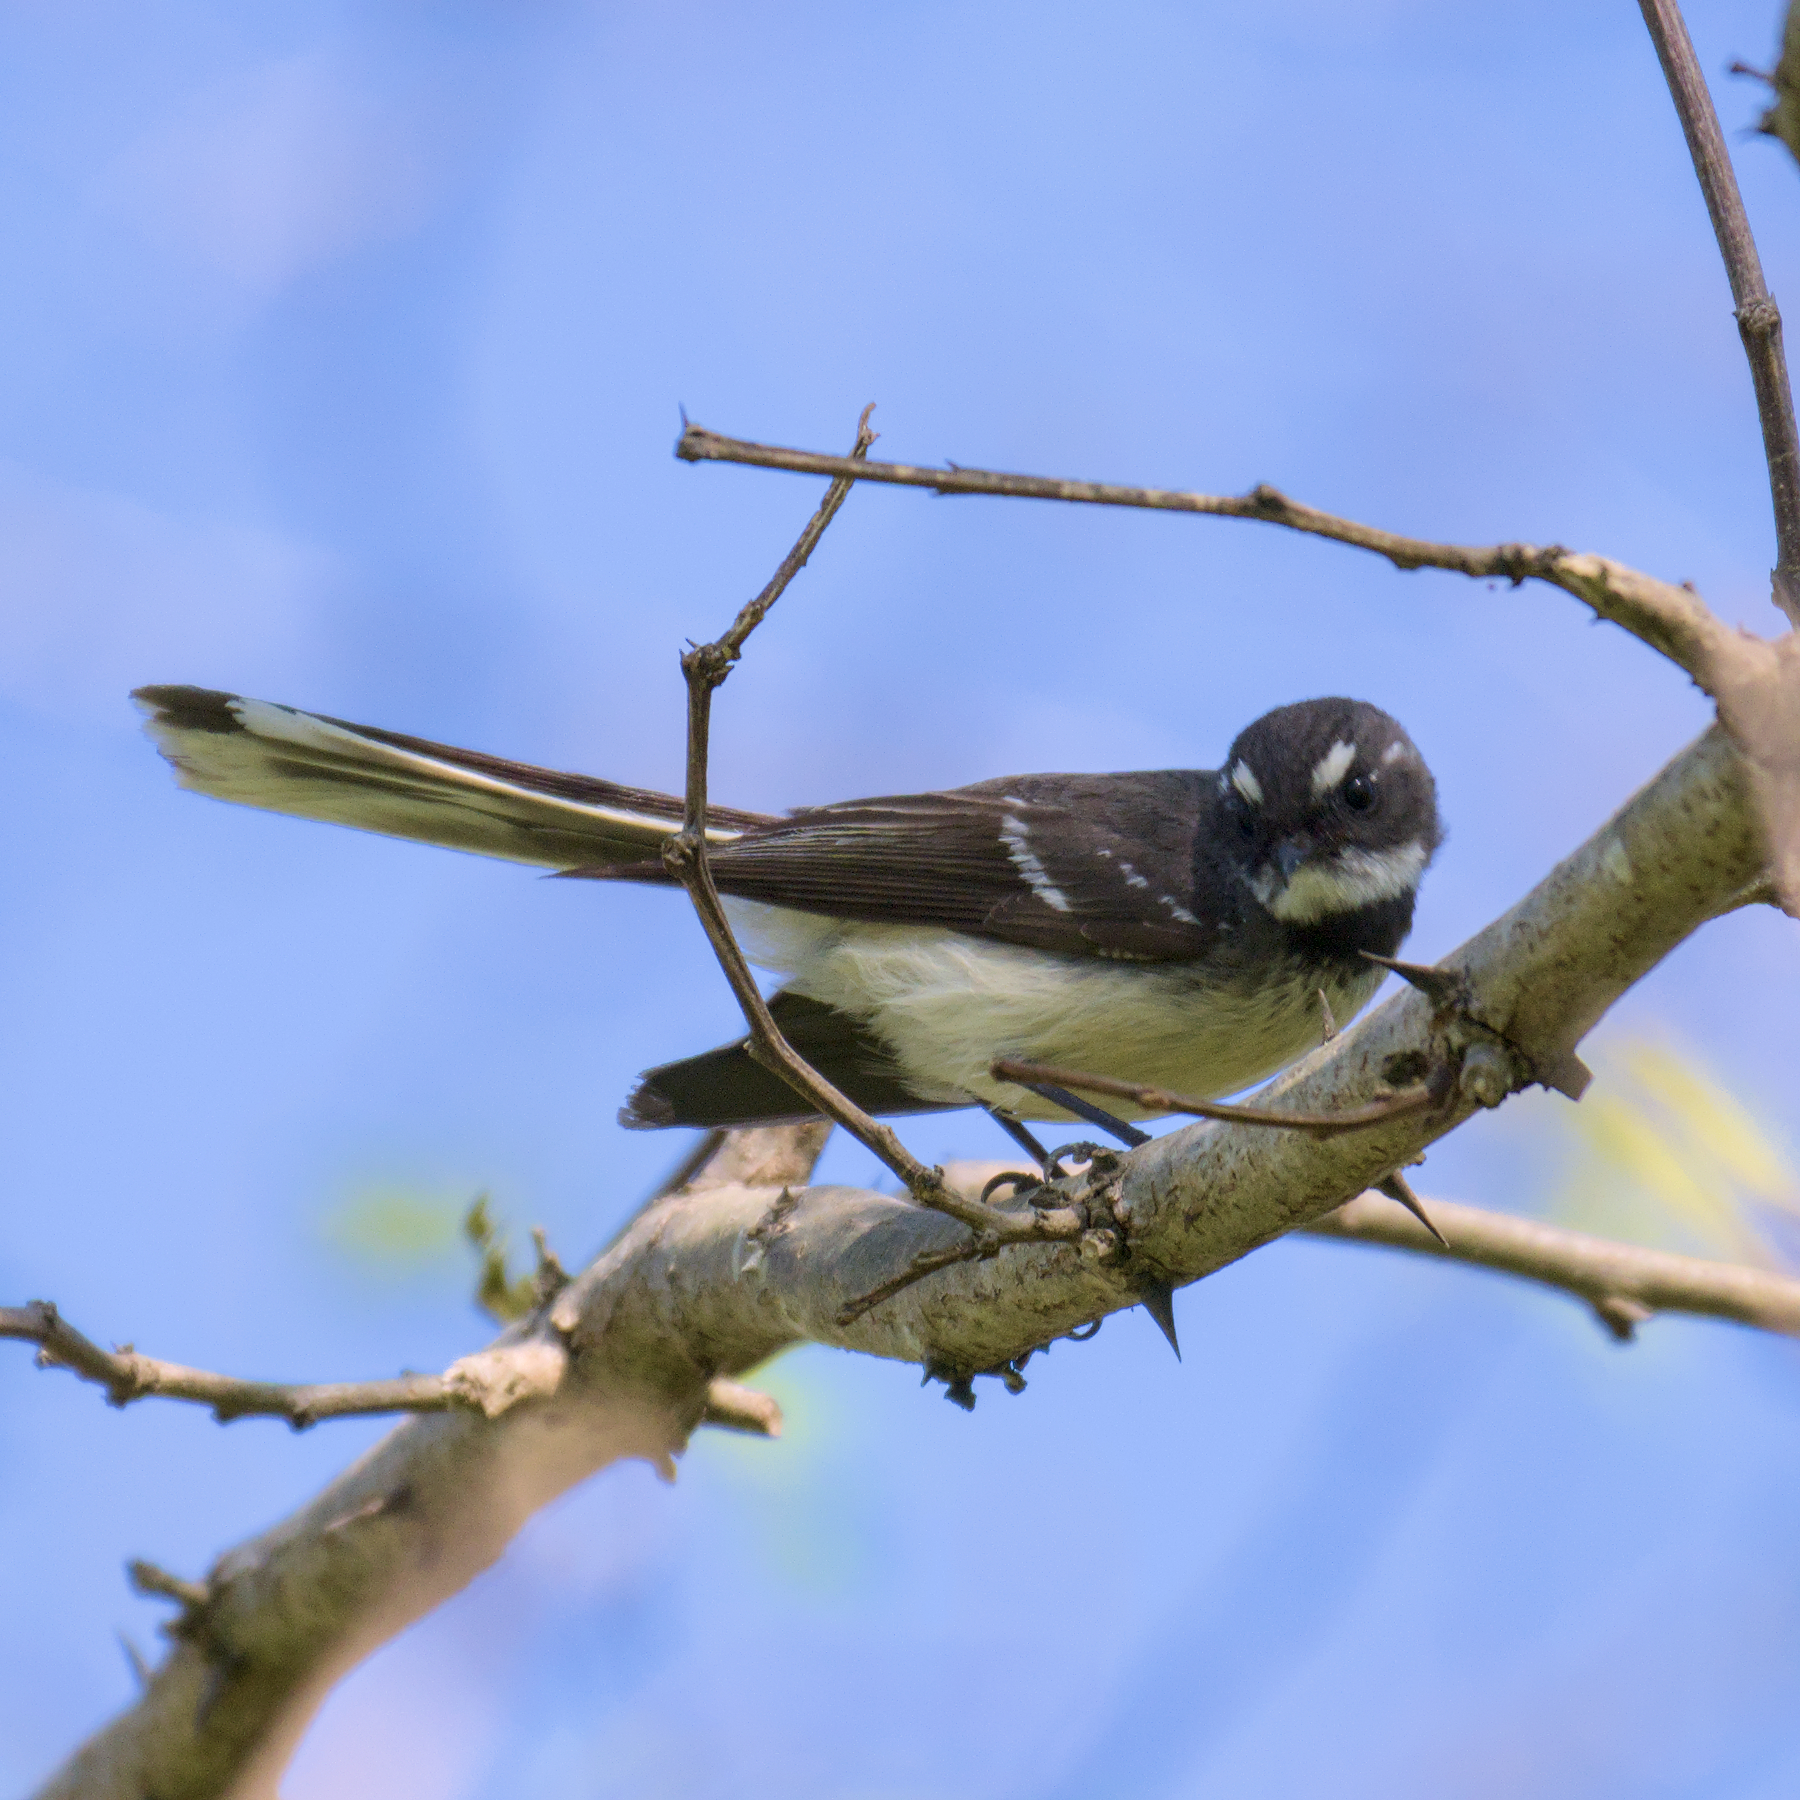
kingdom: Animalia
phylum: Chordata
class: Aves
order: Passeriformes
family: Rhipiduridae
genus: Rhipidura
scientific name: Rhipidura albiscapa
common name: Grey fantail
